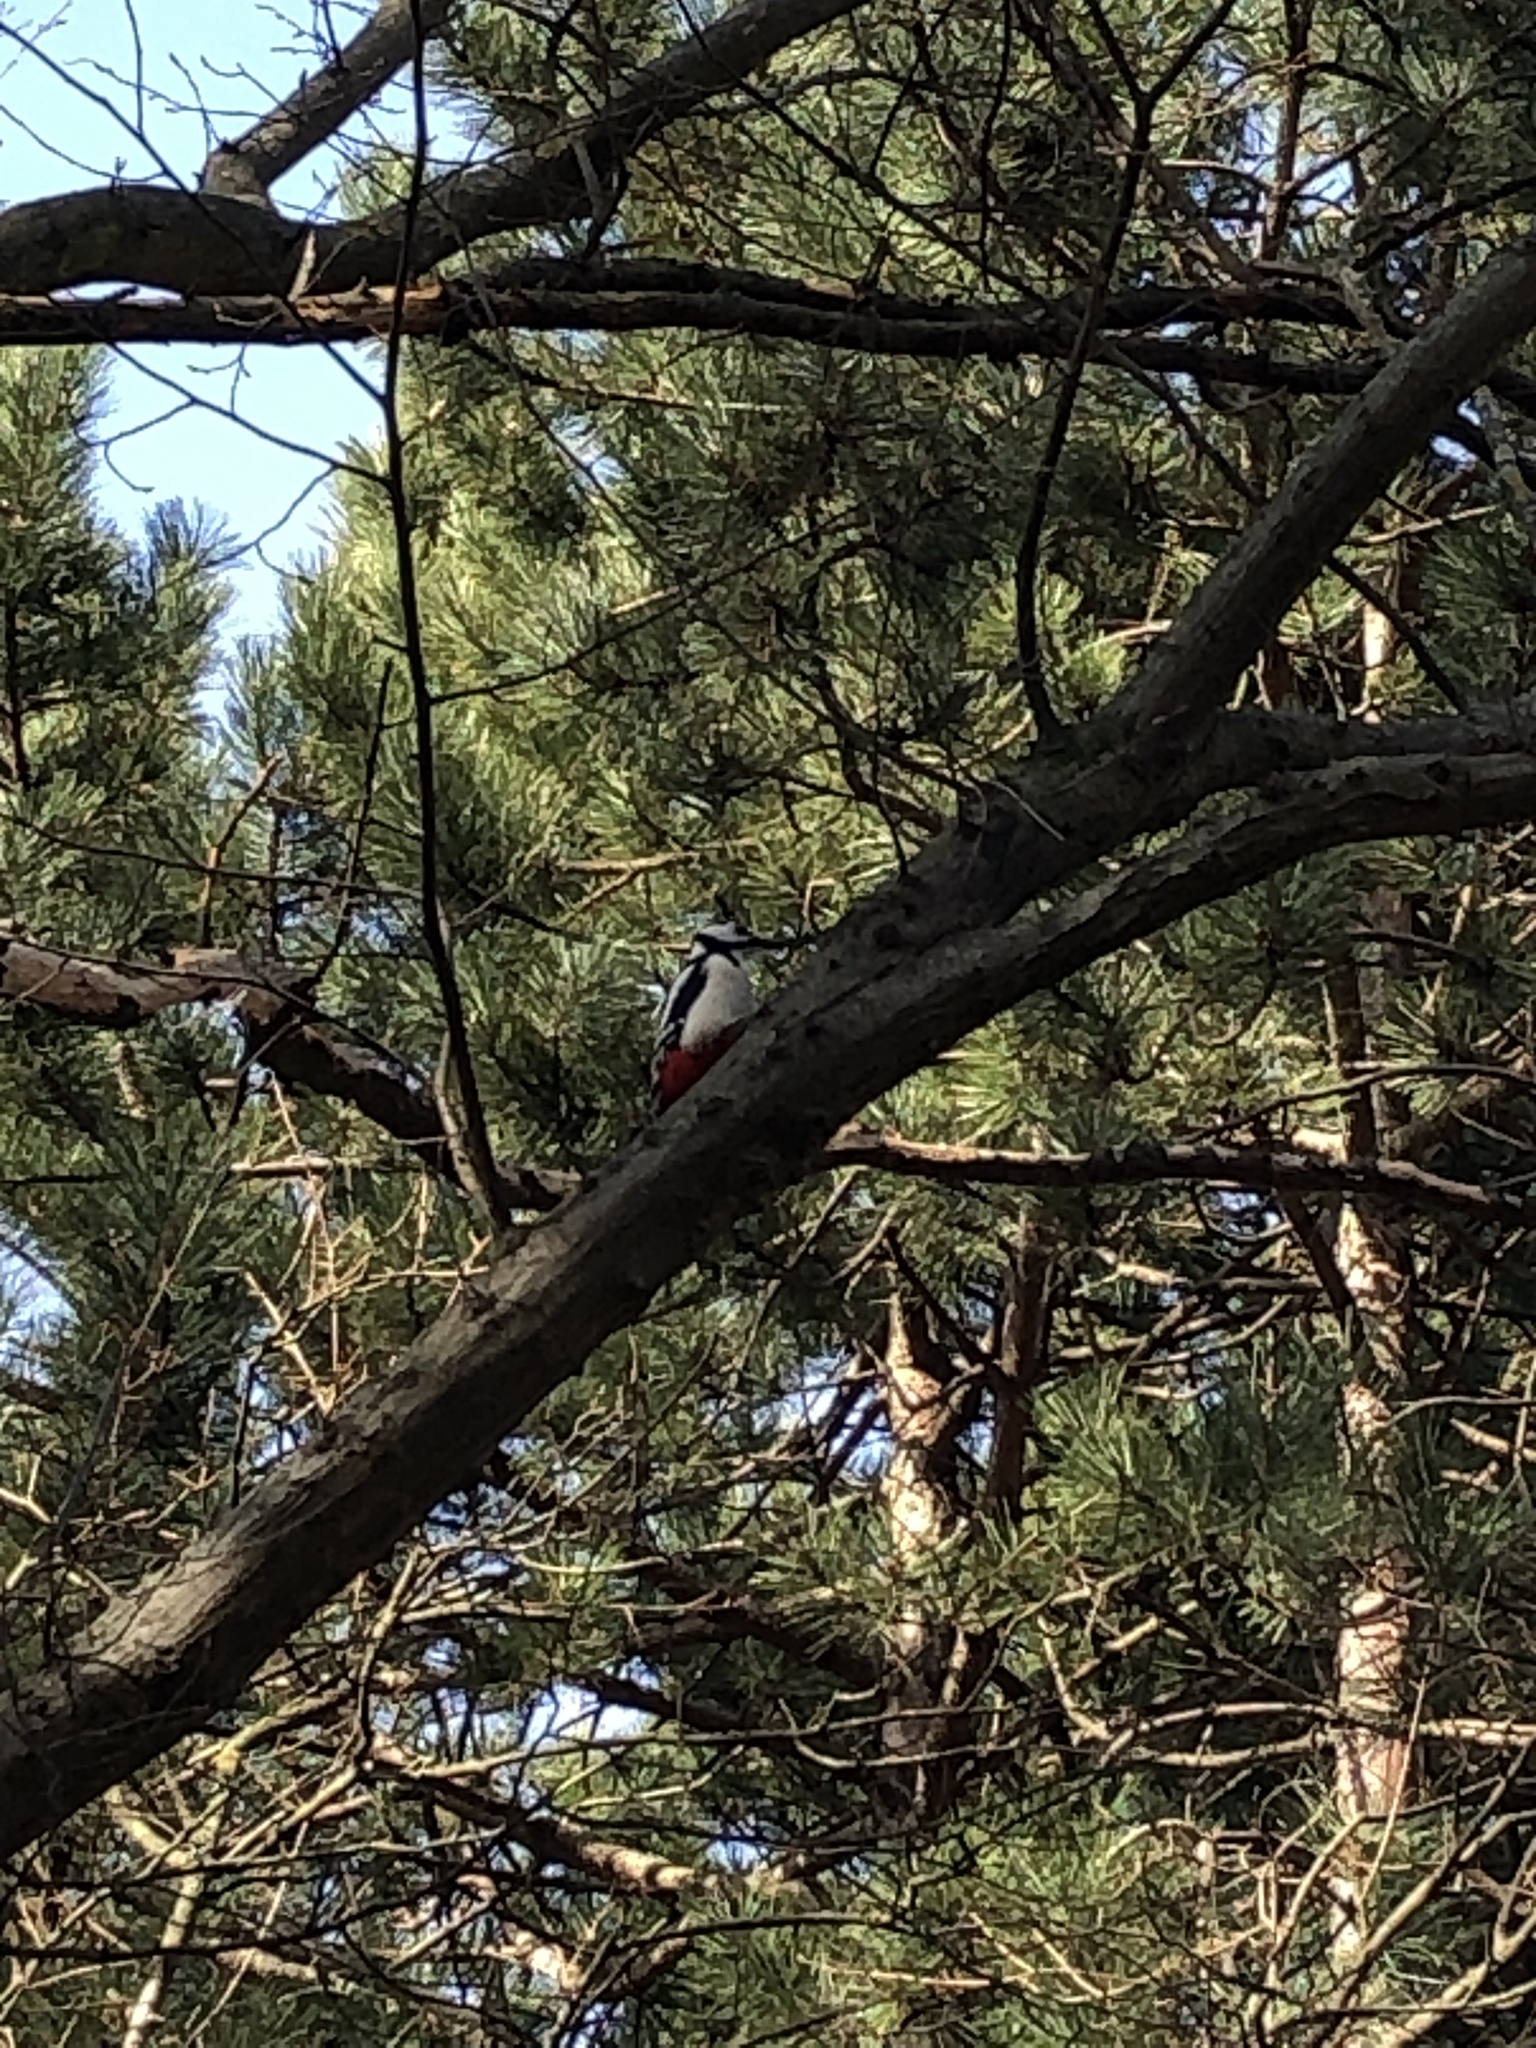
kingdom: Animalia
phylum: Chordata
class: Aves
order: Piciformes
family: Picidae
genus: Dendrocopos
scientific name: Dendrocopos major
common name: Great spotted woodpecker
